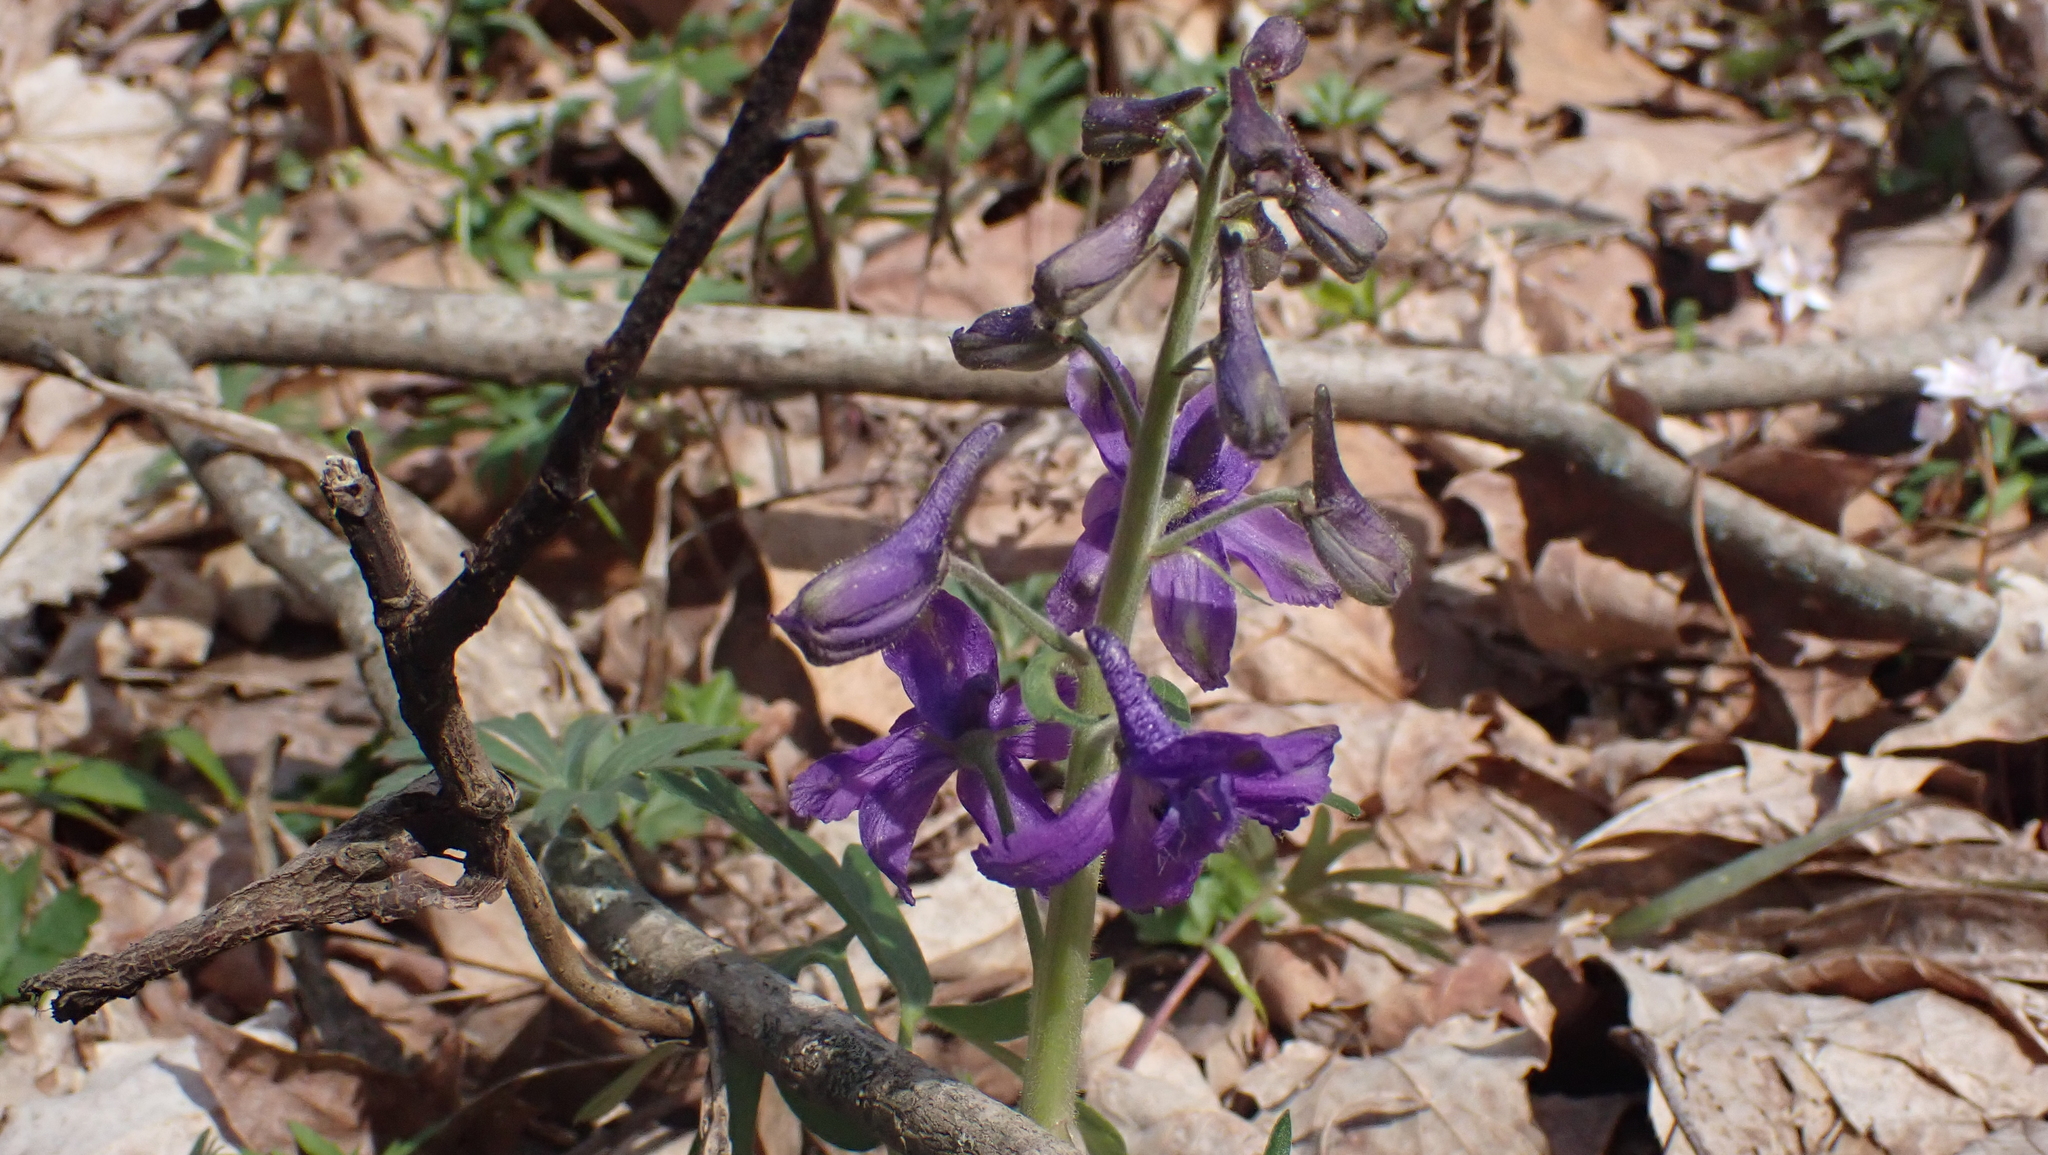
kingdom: Plantae
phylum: Tracheophyta
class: Magnoliopsida
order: Ranunculales
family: Ranunculaceae
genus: Delphinium
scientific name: Delphinium tricorne
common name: Dwarf larkspur
